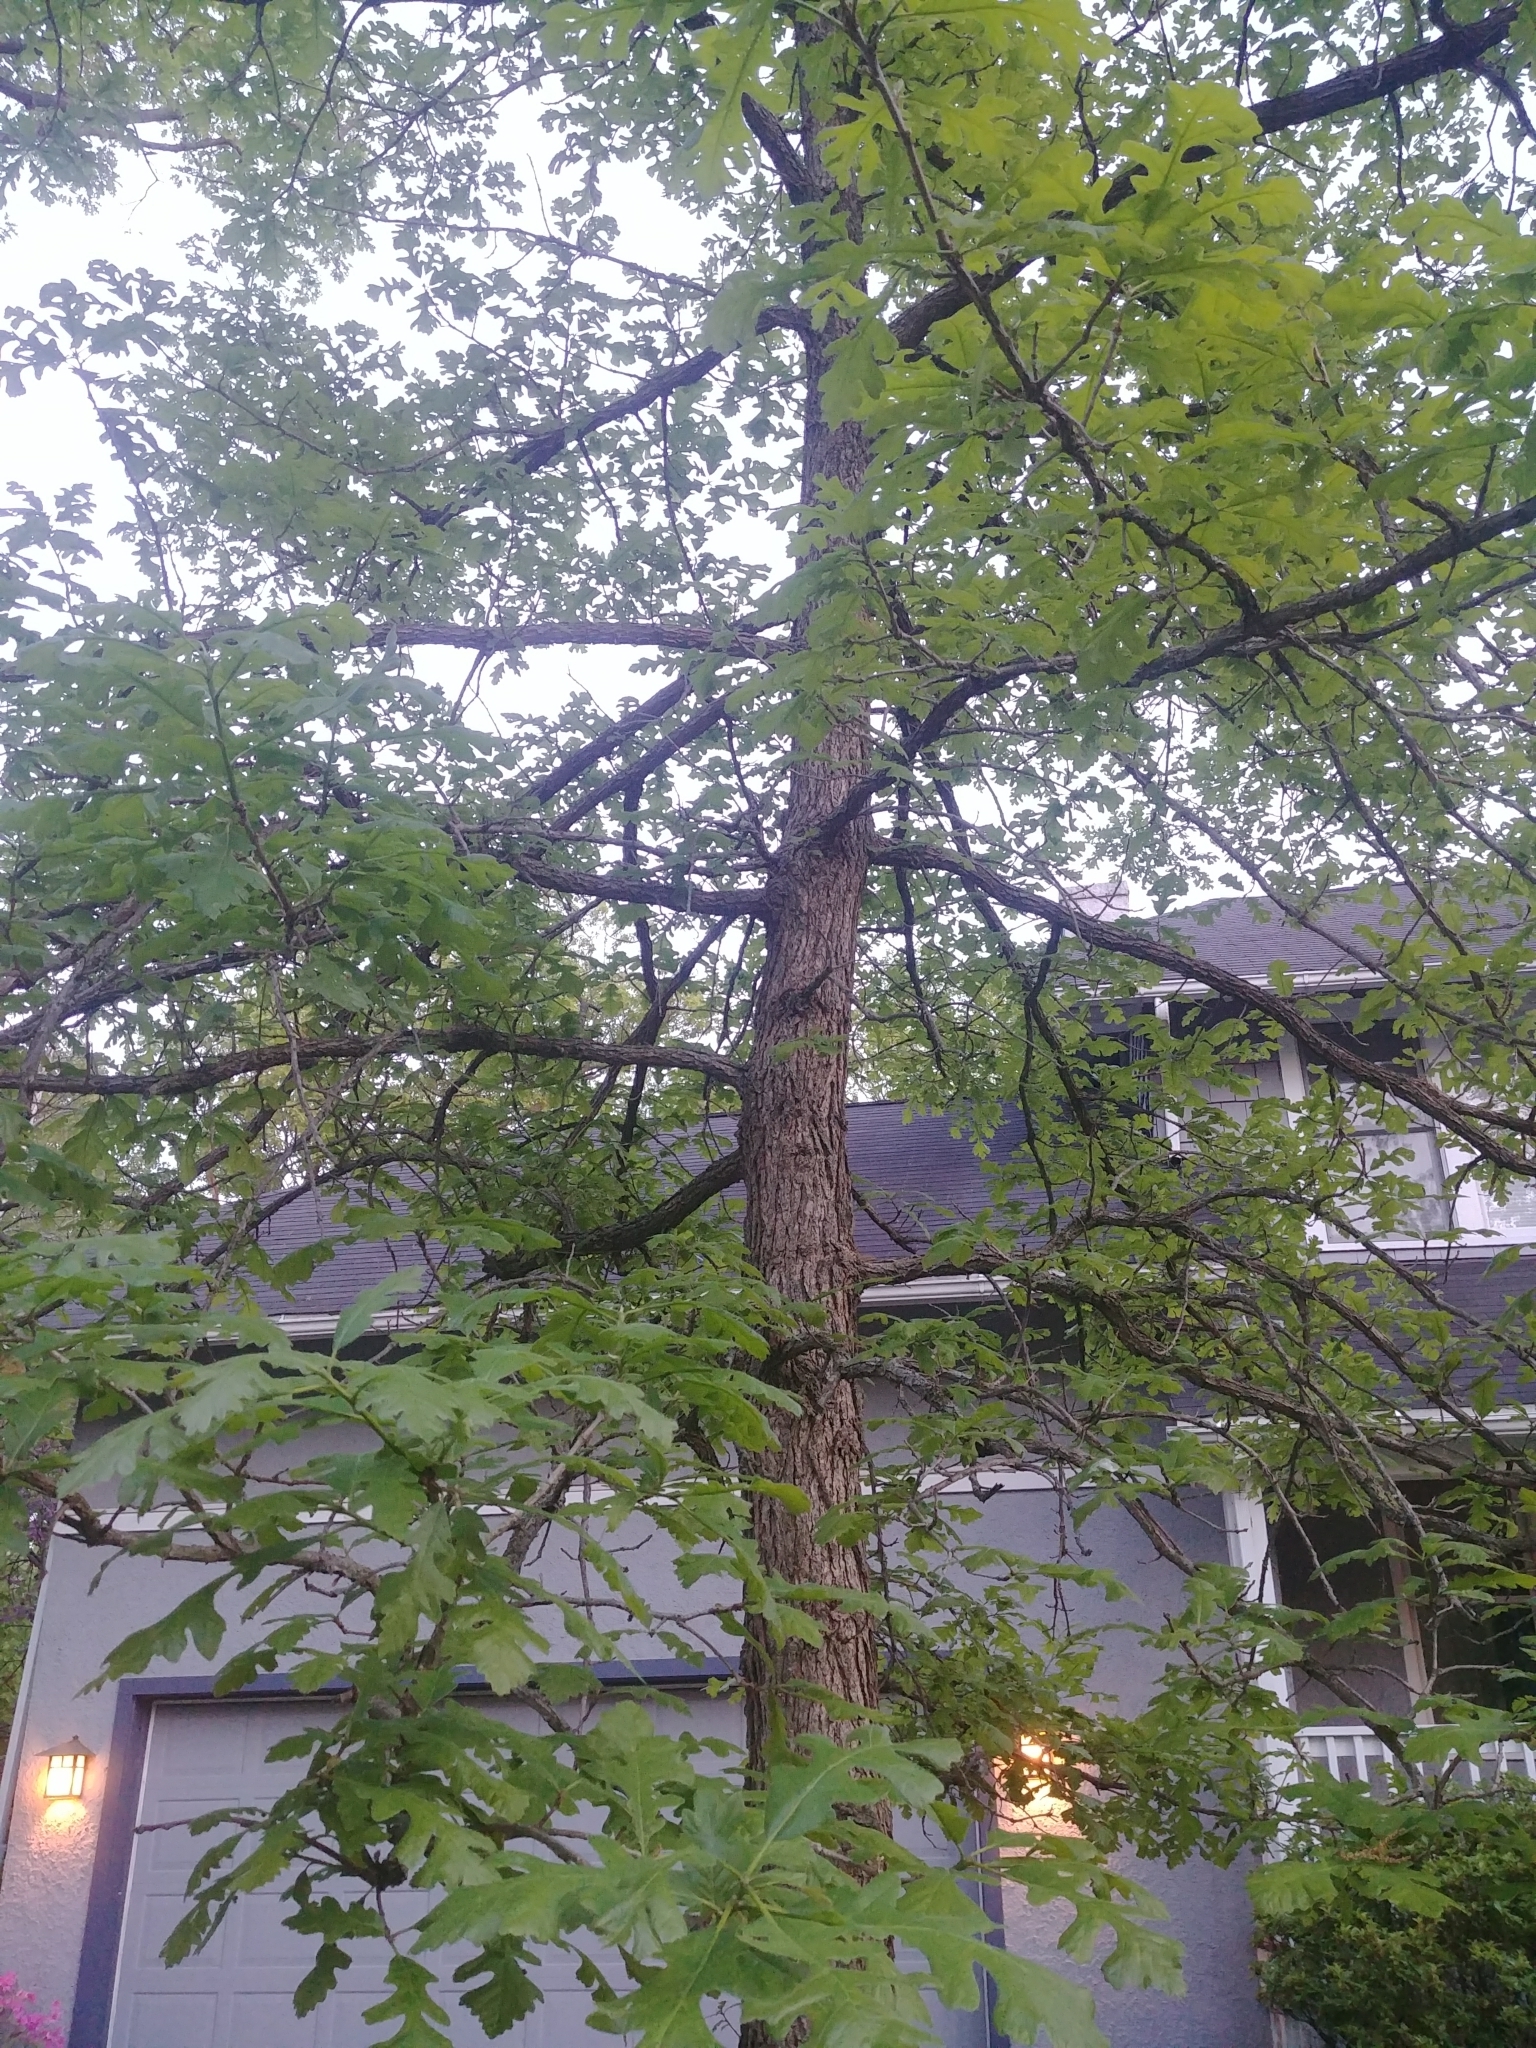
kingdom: Plantae
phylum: Tracheophyta
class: Magnoliopsida
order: Fagales
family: Fagaceae
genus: Quercus
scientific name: Quercus macrocarpa
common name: Bur oak
